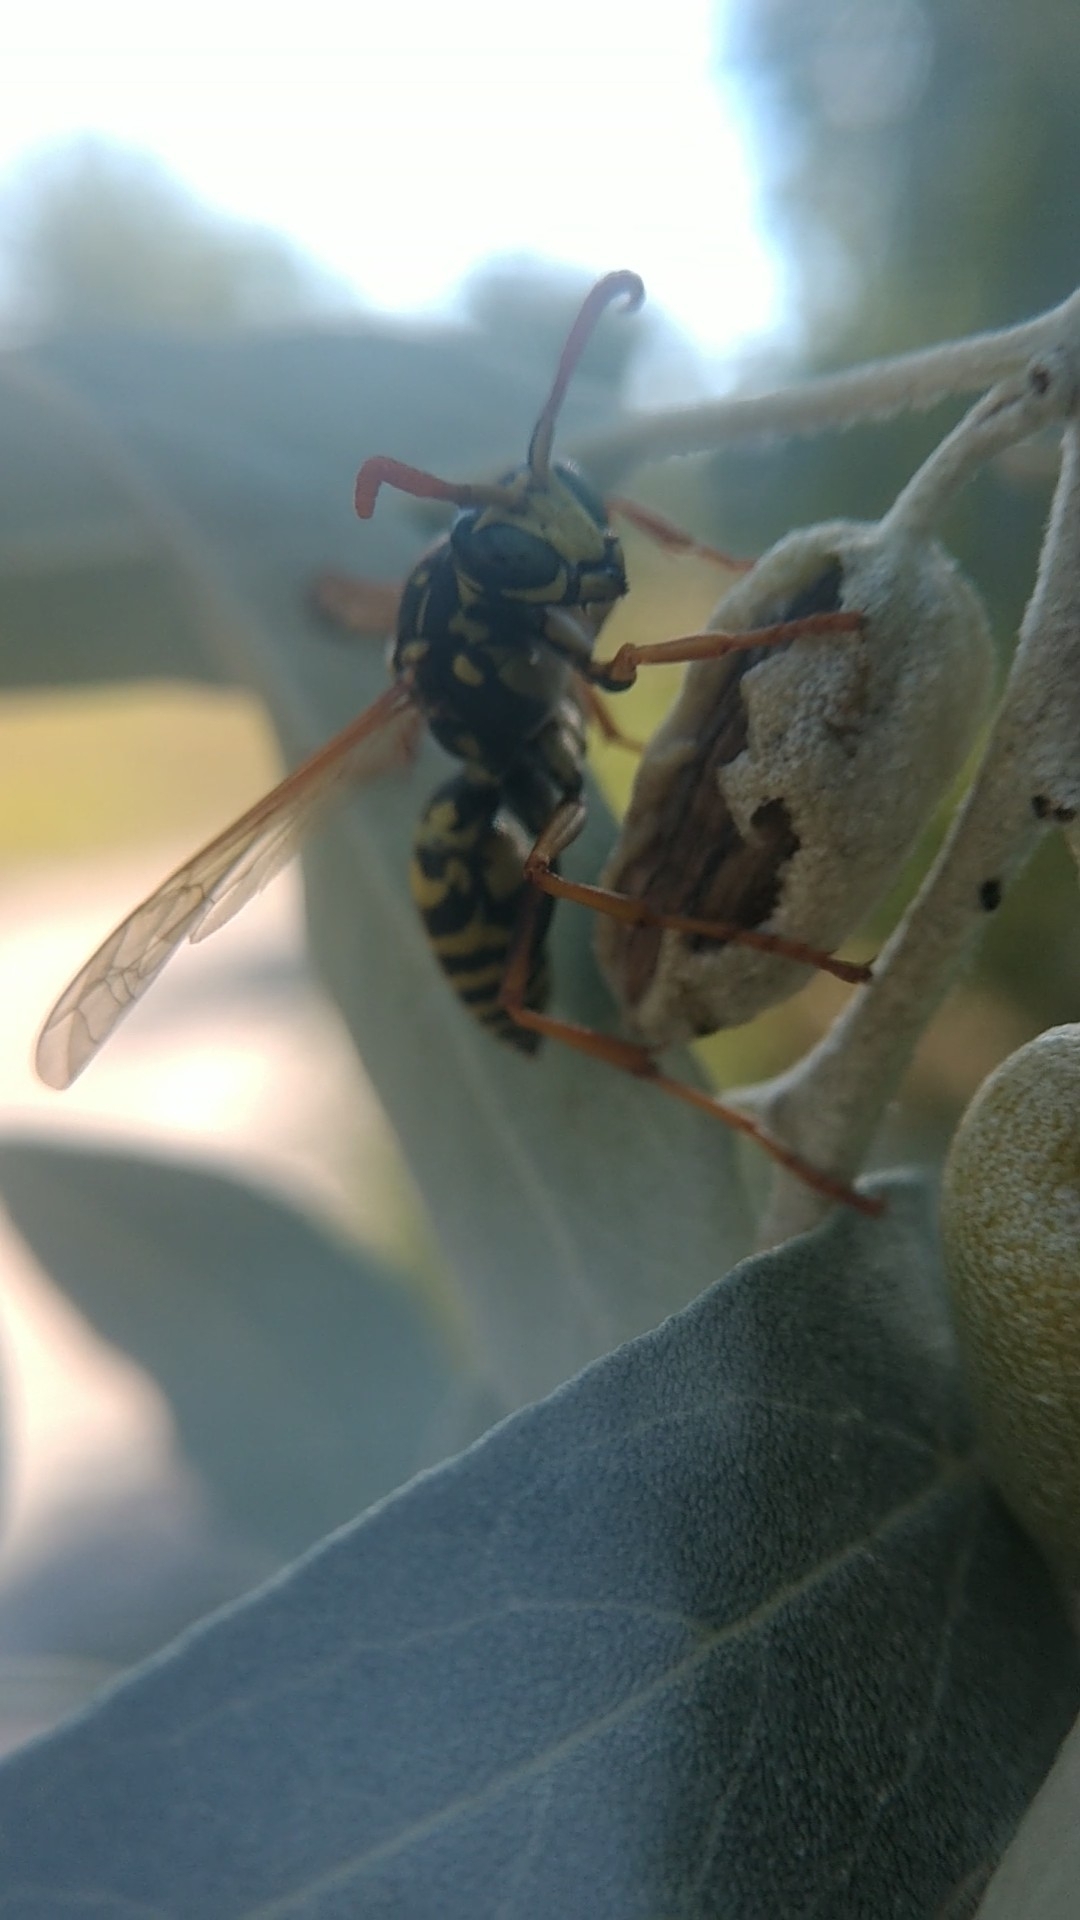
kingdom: Animalia
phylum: Arthropoda
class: Insecta
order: Hymenoptera
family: Eumenidae
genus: Polistes
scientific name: Polistes dominula
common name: Paper wasp
